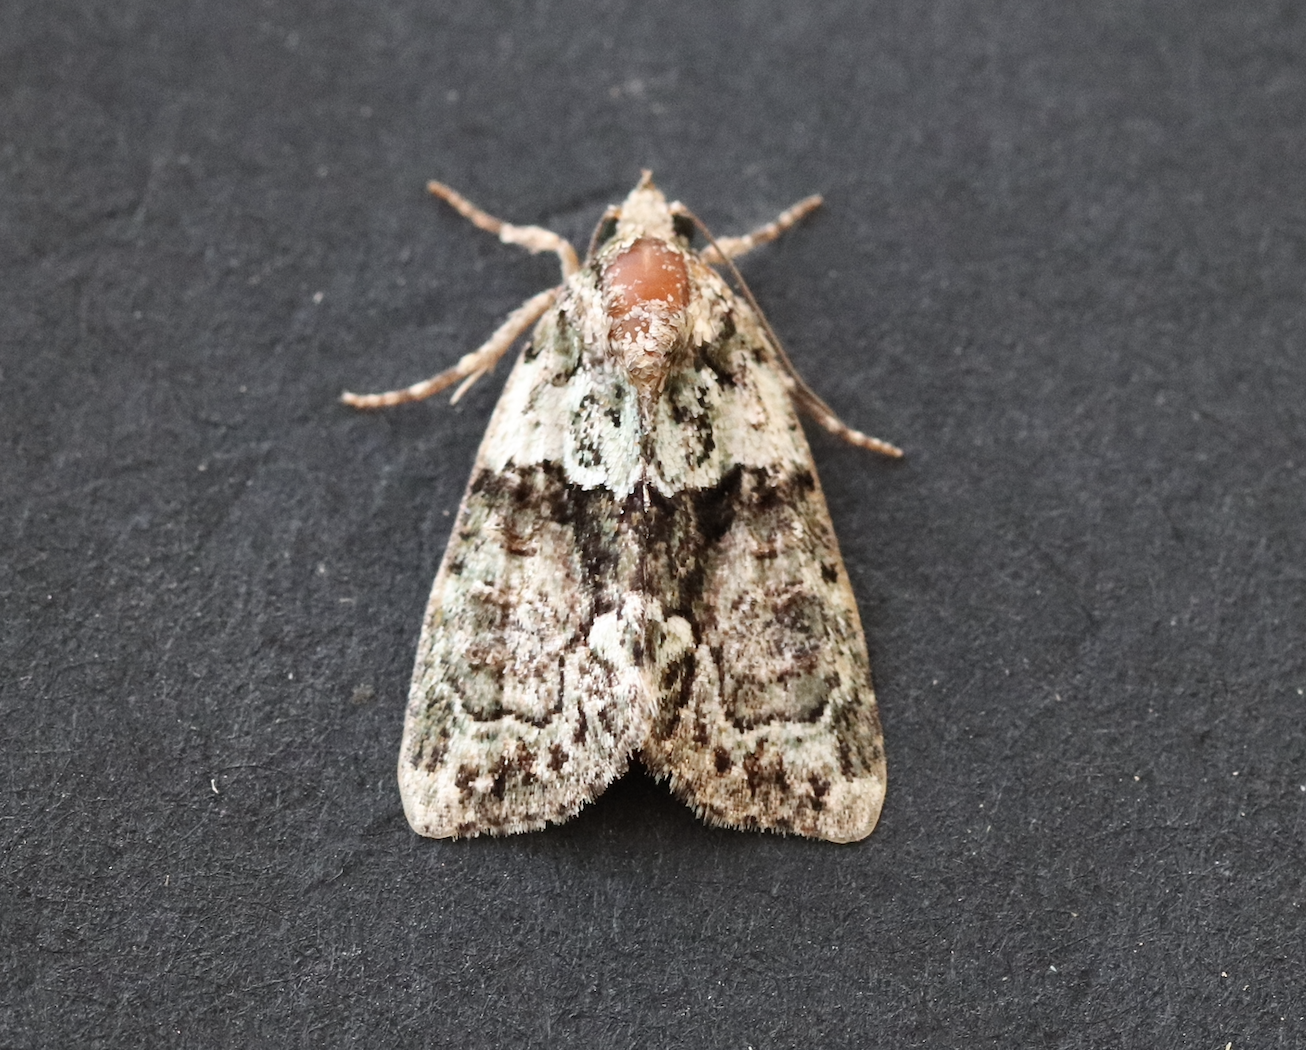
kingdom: Animalia
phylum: Arthropoda
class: Insecta
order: Lepidoptera
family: Noctuidae
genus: Cryphia
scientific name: Cryphia algae
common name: Tree-lichen beauty
